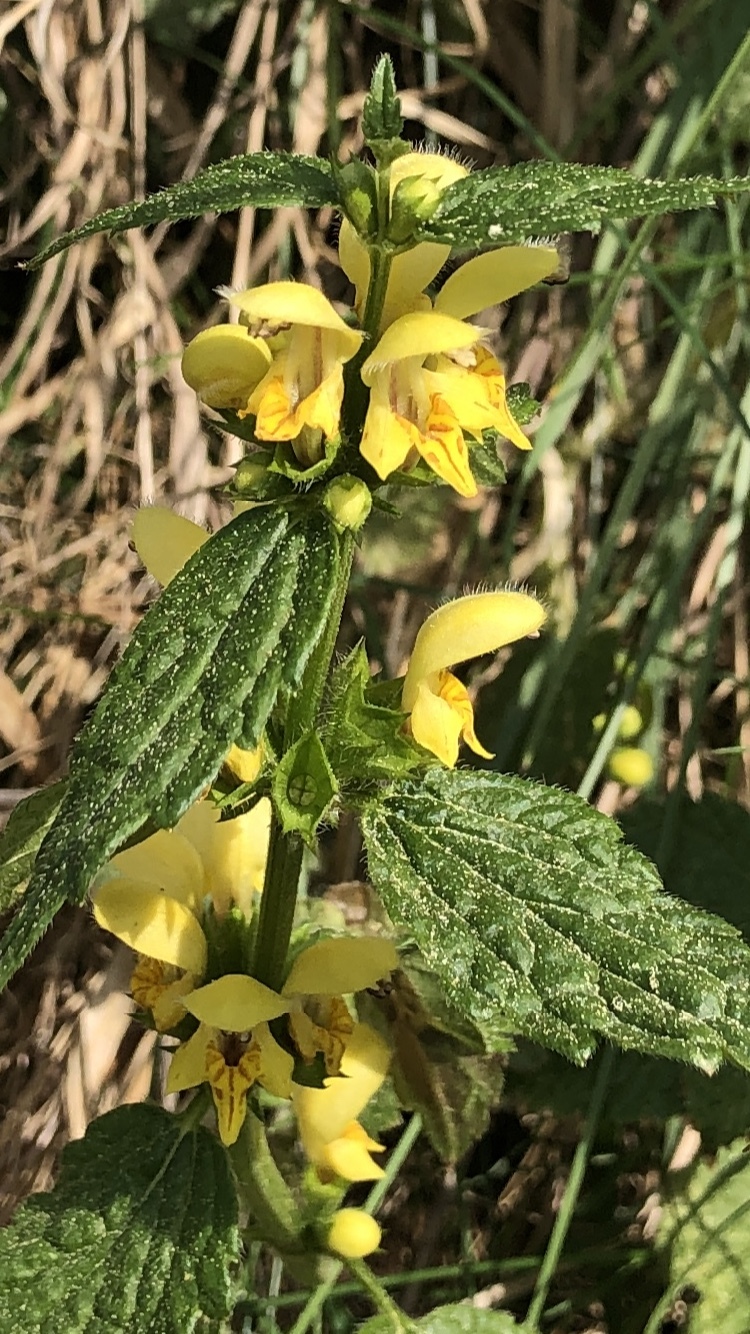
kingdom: Plantae
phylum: Tracheophyta
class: Magnoliopsida
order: Lamiales
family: Lamiaceae
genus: Lamium
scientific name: Lamium galeobdolon
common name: Yellow archangel
